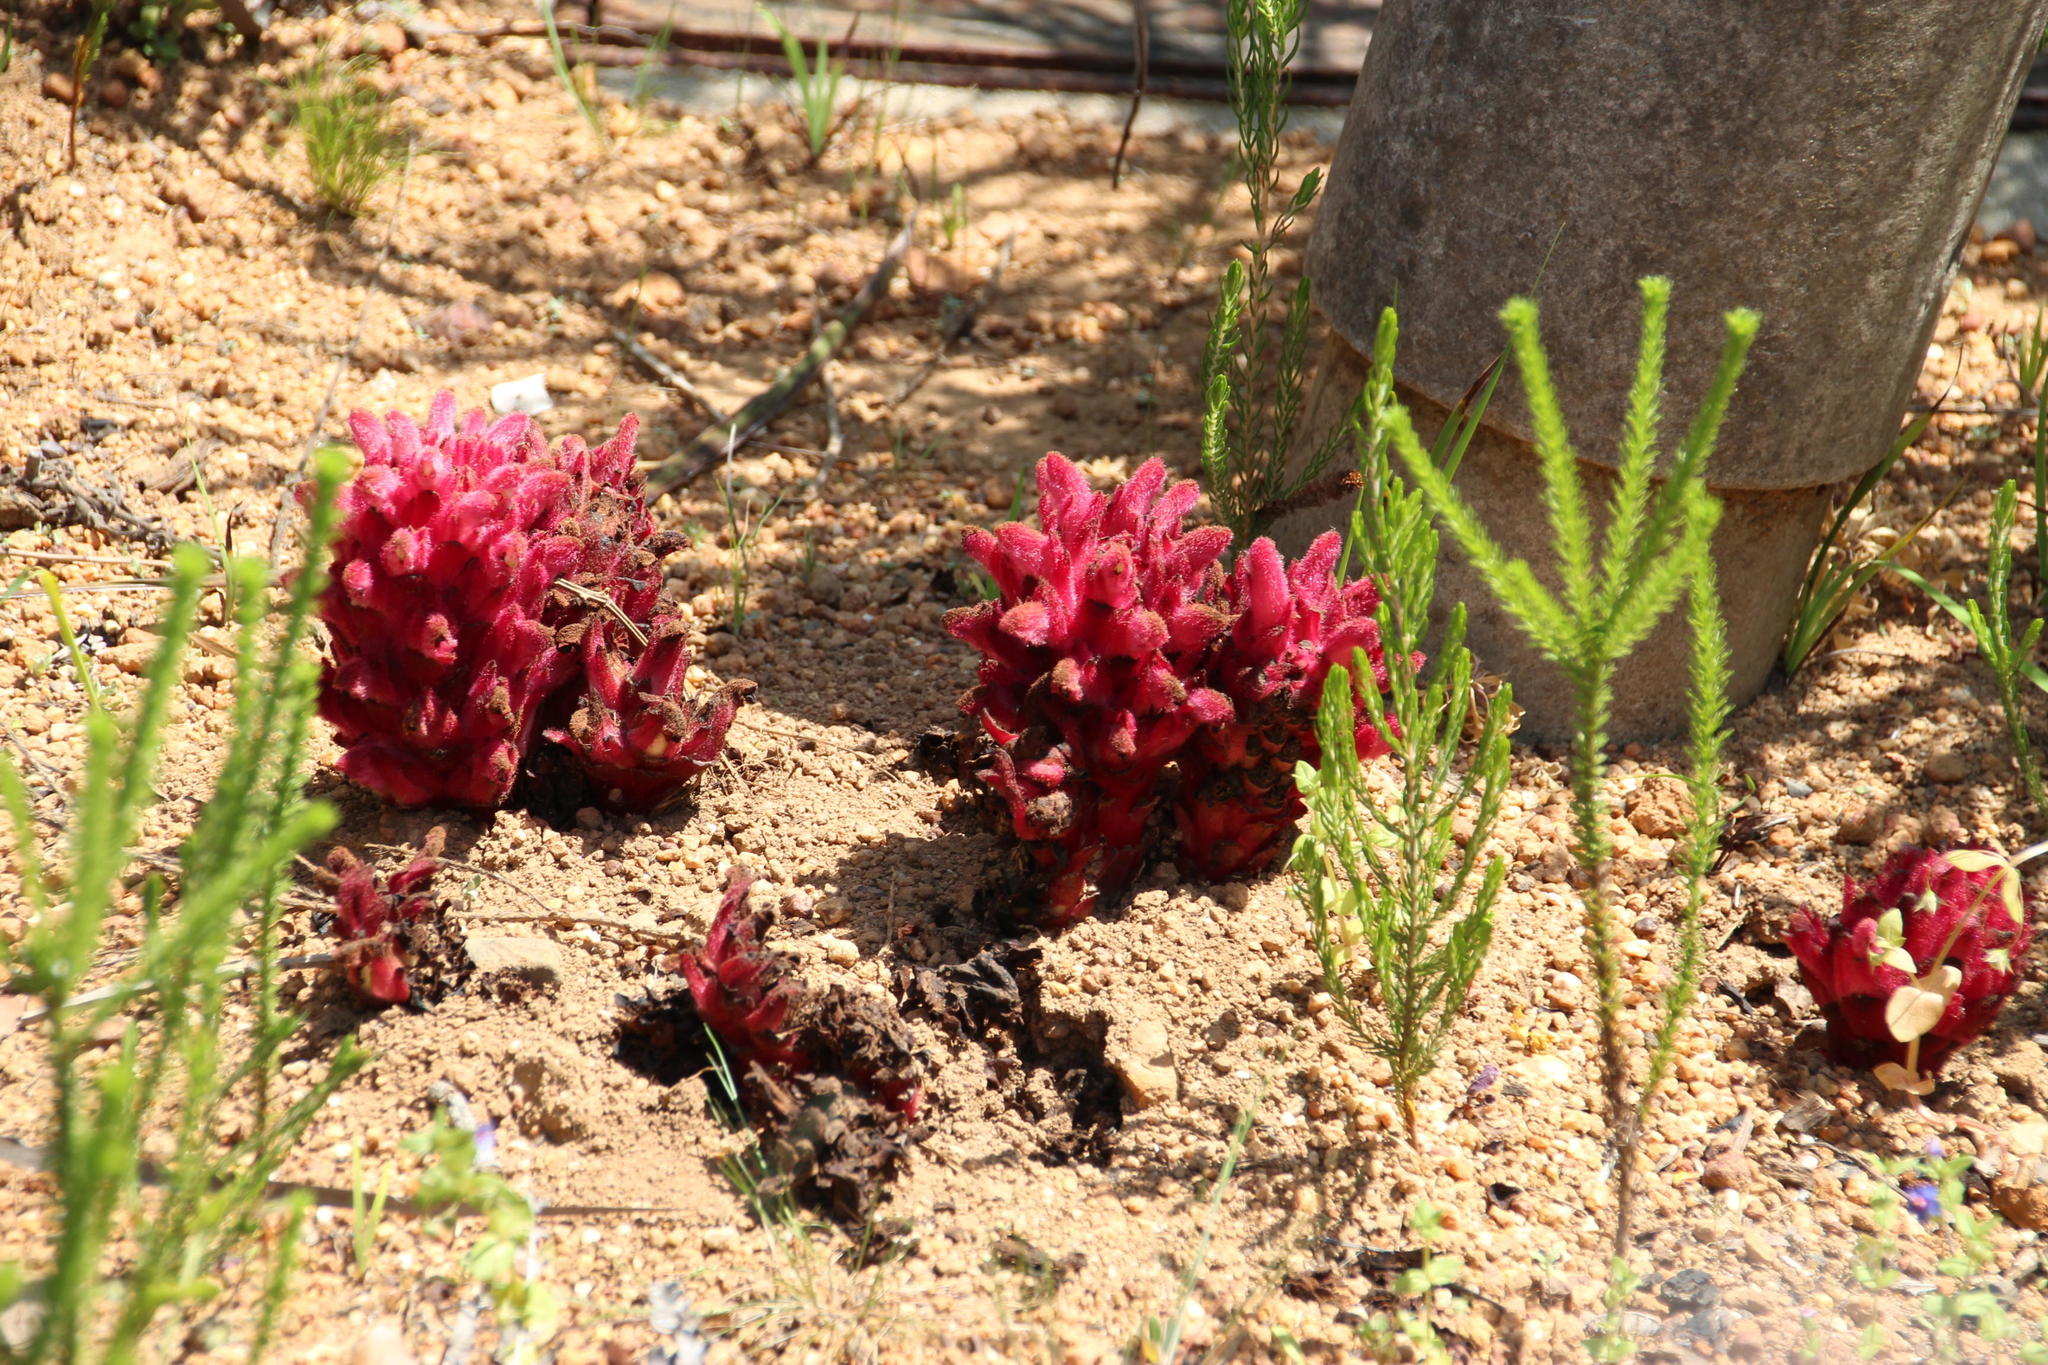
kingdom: Plantae
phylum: Tracheophyta
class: Magnoliopsida
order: Lamiales
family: Orobanchaceae
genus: Hyobanche
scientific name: Hyobanche sanguinea
